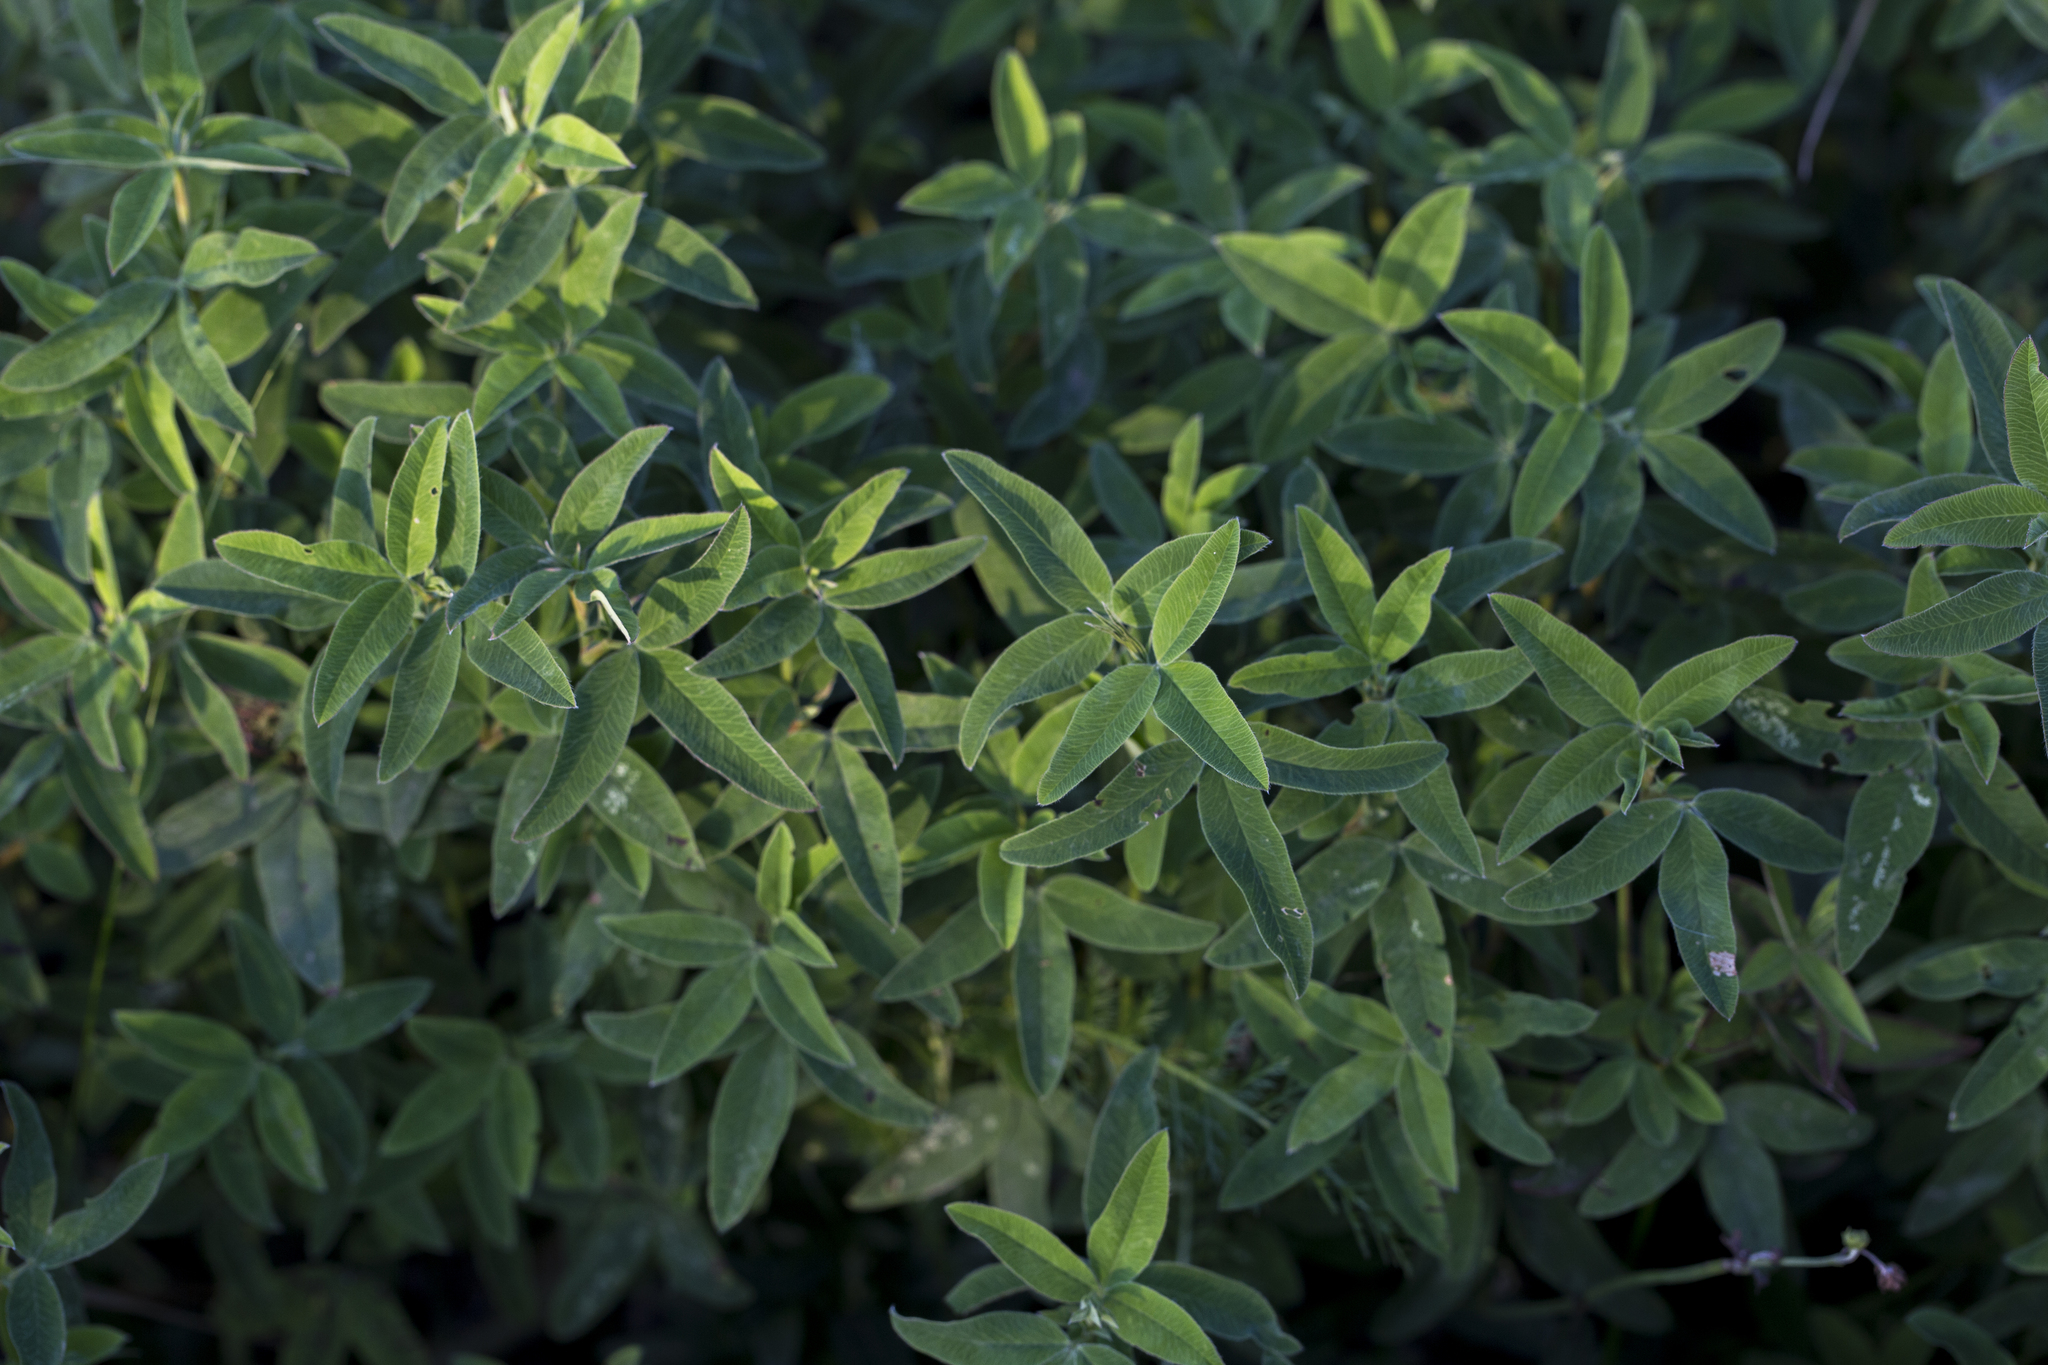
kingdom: Plantae
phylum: Tracheophyta
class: Magnoliopsida
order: Fabales
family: Fabaceae
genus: Trifolium
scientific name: Trifolium medium
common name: Zigzag clover
